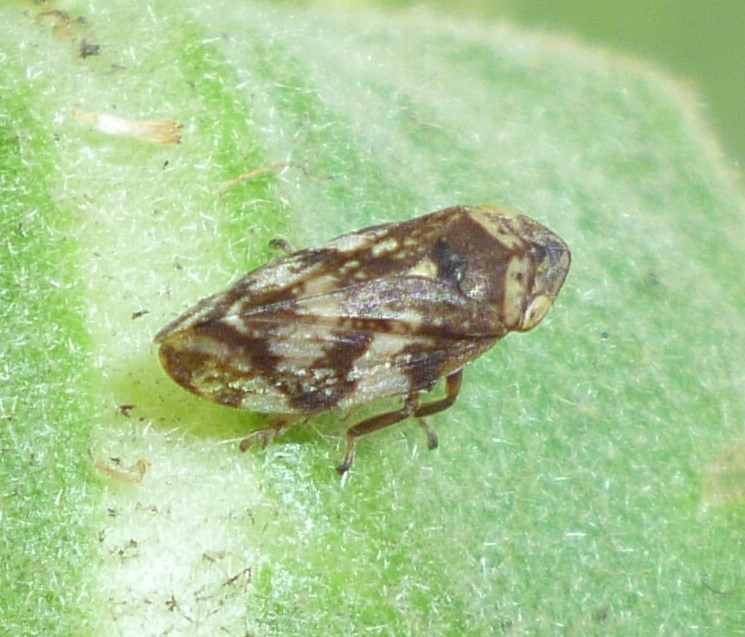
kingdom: Animalia
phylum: Arthropoda
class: Insecta
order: Hemiptera
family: Aphrophoridae
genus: Philaenus
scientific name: Philaenus spumarius
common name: Meadow spittlebug
